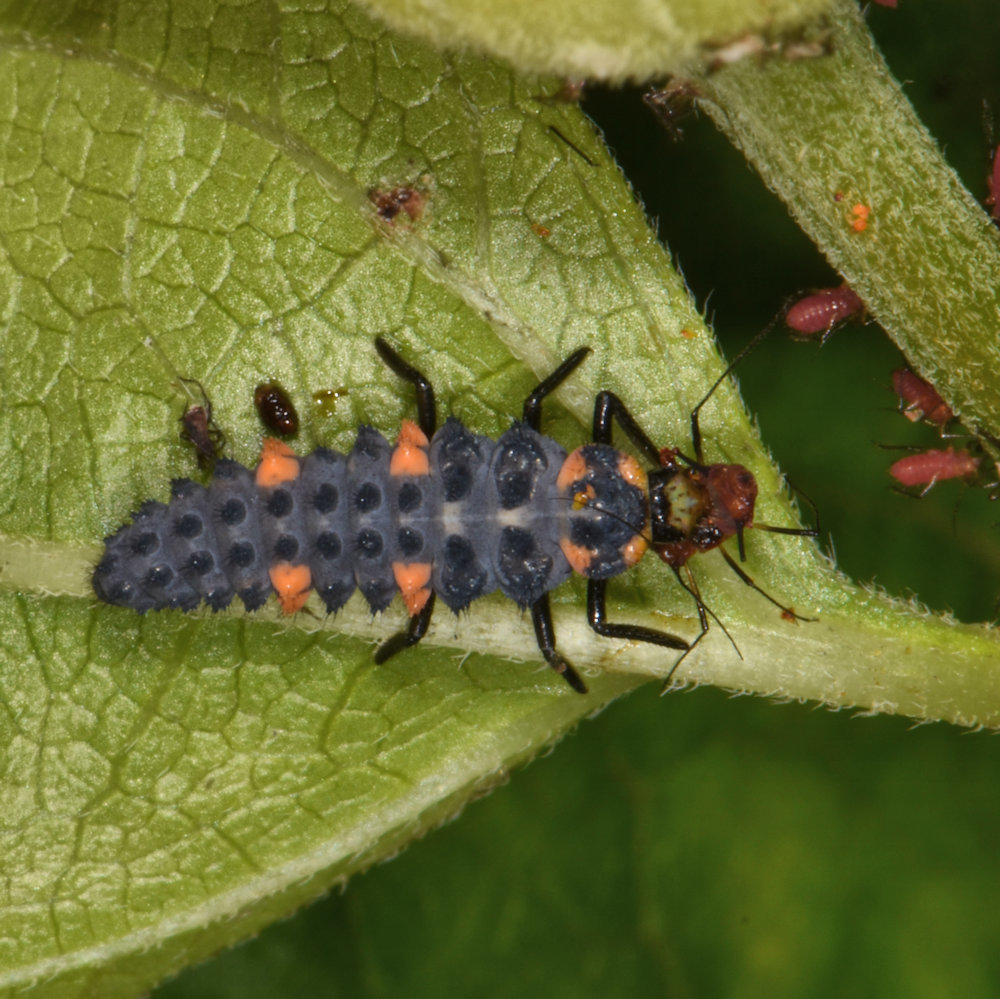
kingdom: Animalia
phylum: Arthropoda
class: Insecta
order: Coleoptera
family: Coccinellidae
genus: Coccinella
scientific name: Coccinella septempunctata
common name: Sevenspotted lady beetle
